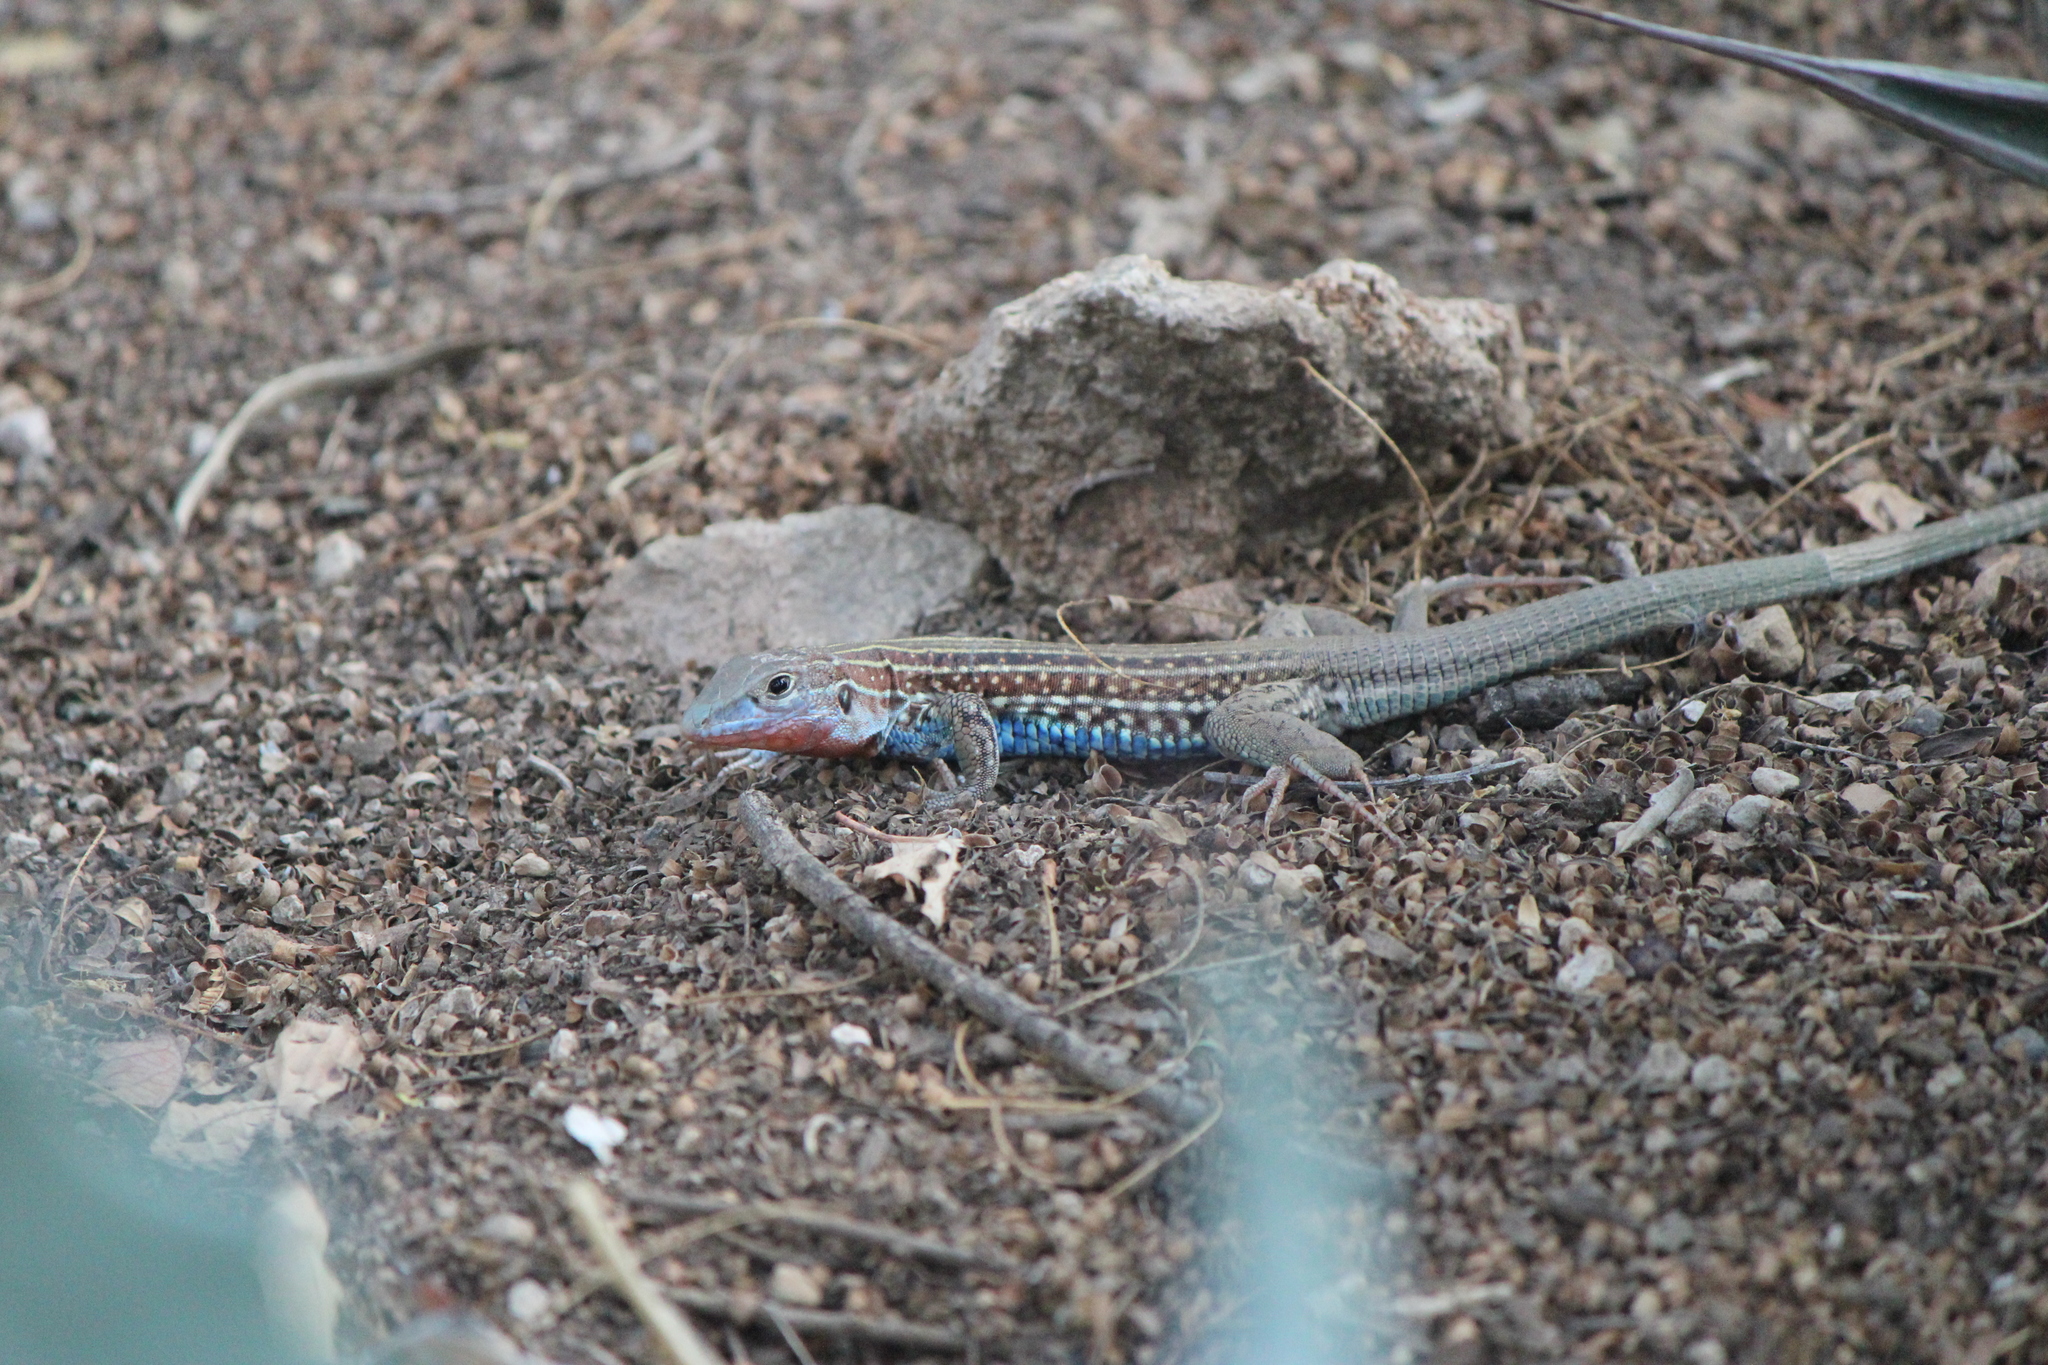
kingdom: Animalia
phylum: Chordata
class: Squamata
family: Teiidae
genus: Aspidoscelis
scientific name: Aspidoscelis gularis
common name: Eastern spotted whiptail
